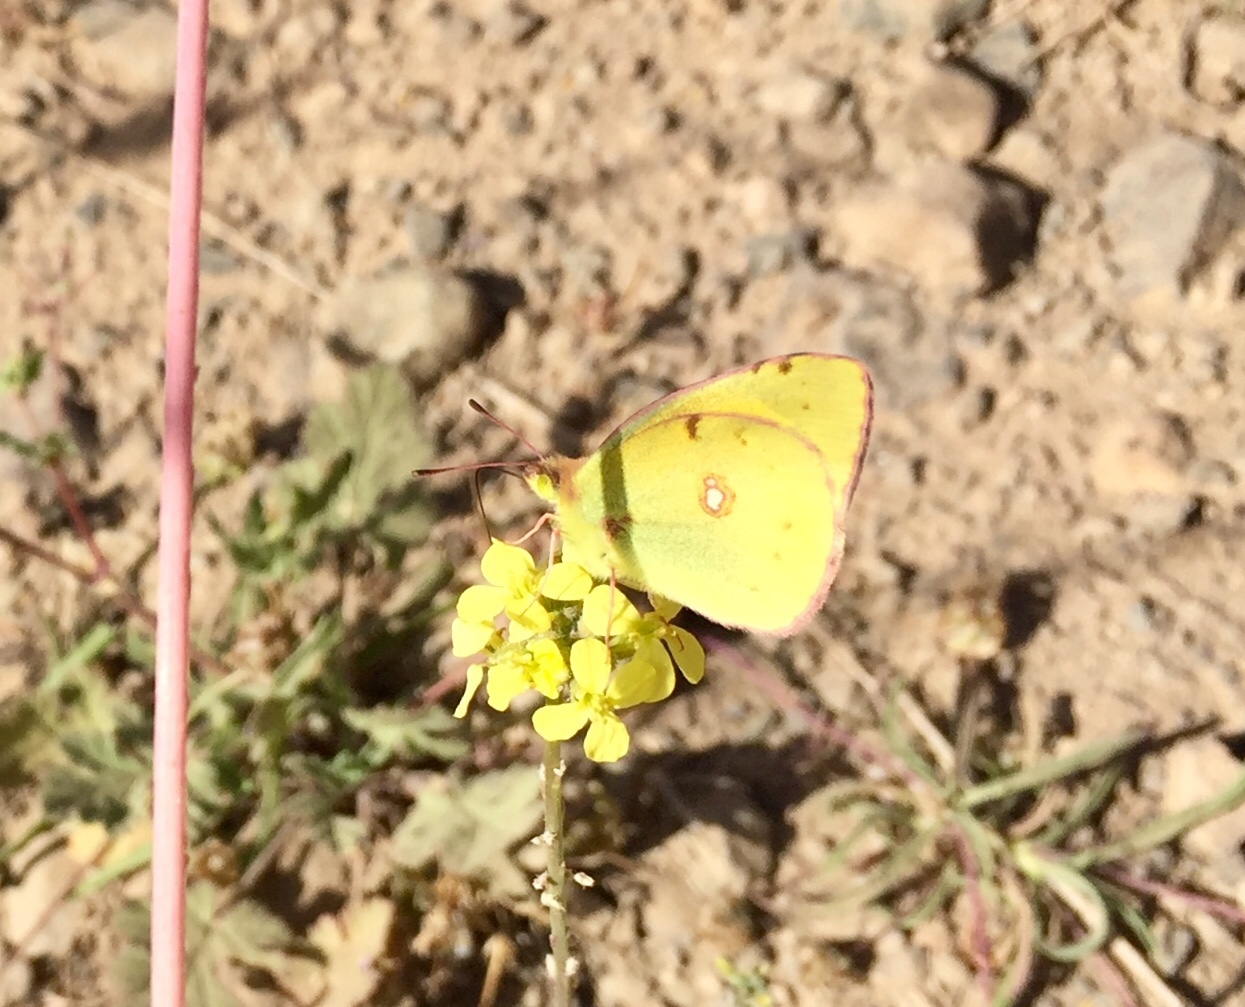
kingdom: Animalia
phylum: Arthropoda
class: Insecta
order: Lepidoptera
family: Pieridae
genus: Colias
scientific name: Colias croceus
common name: Clouded yellow
